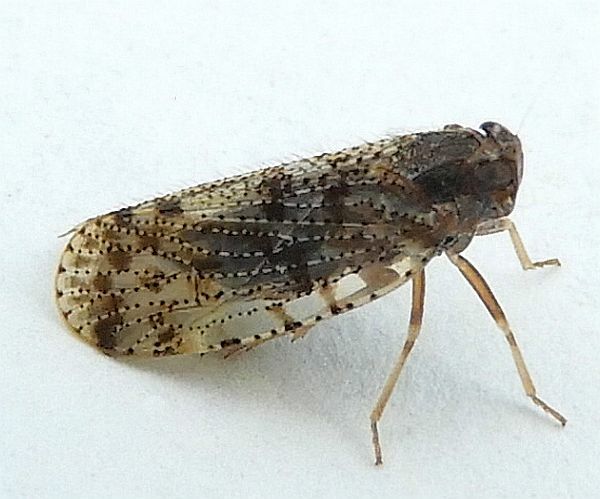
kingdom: Animalia
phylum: Arthropoda
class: Insecta
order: Hemiptera
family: Cixiidae
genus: Cixius
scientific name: Cixius pini
